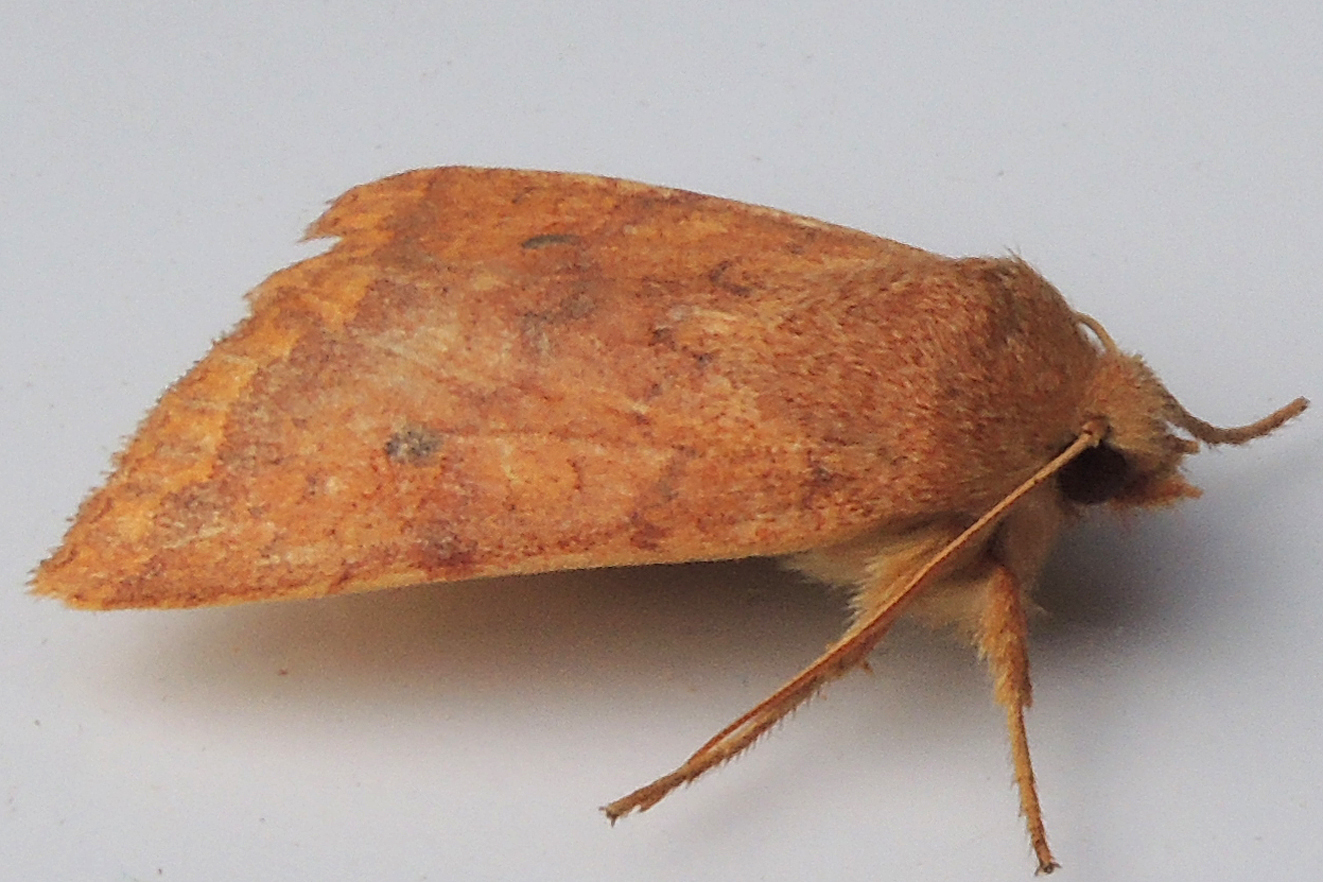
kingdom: Animalia
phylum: Arthropoda
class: Insecta
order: Lepidoptera
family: Noctuidae
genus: Agrochola
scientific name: Agrochola bicolorago
